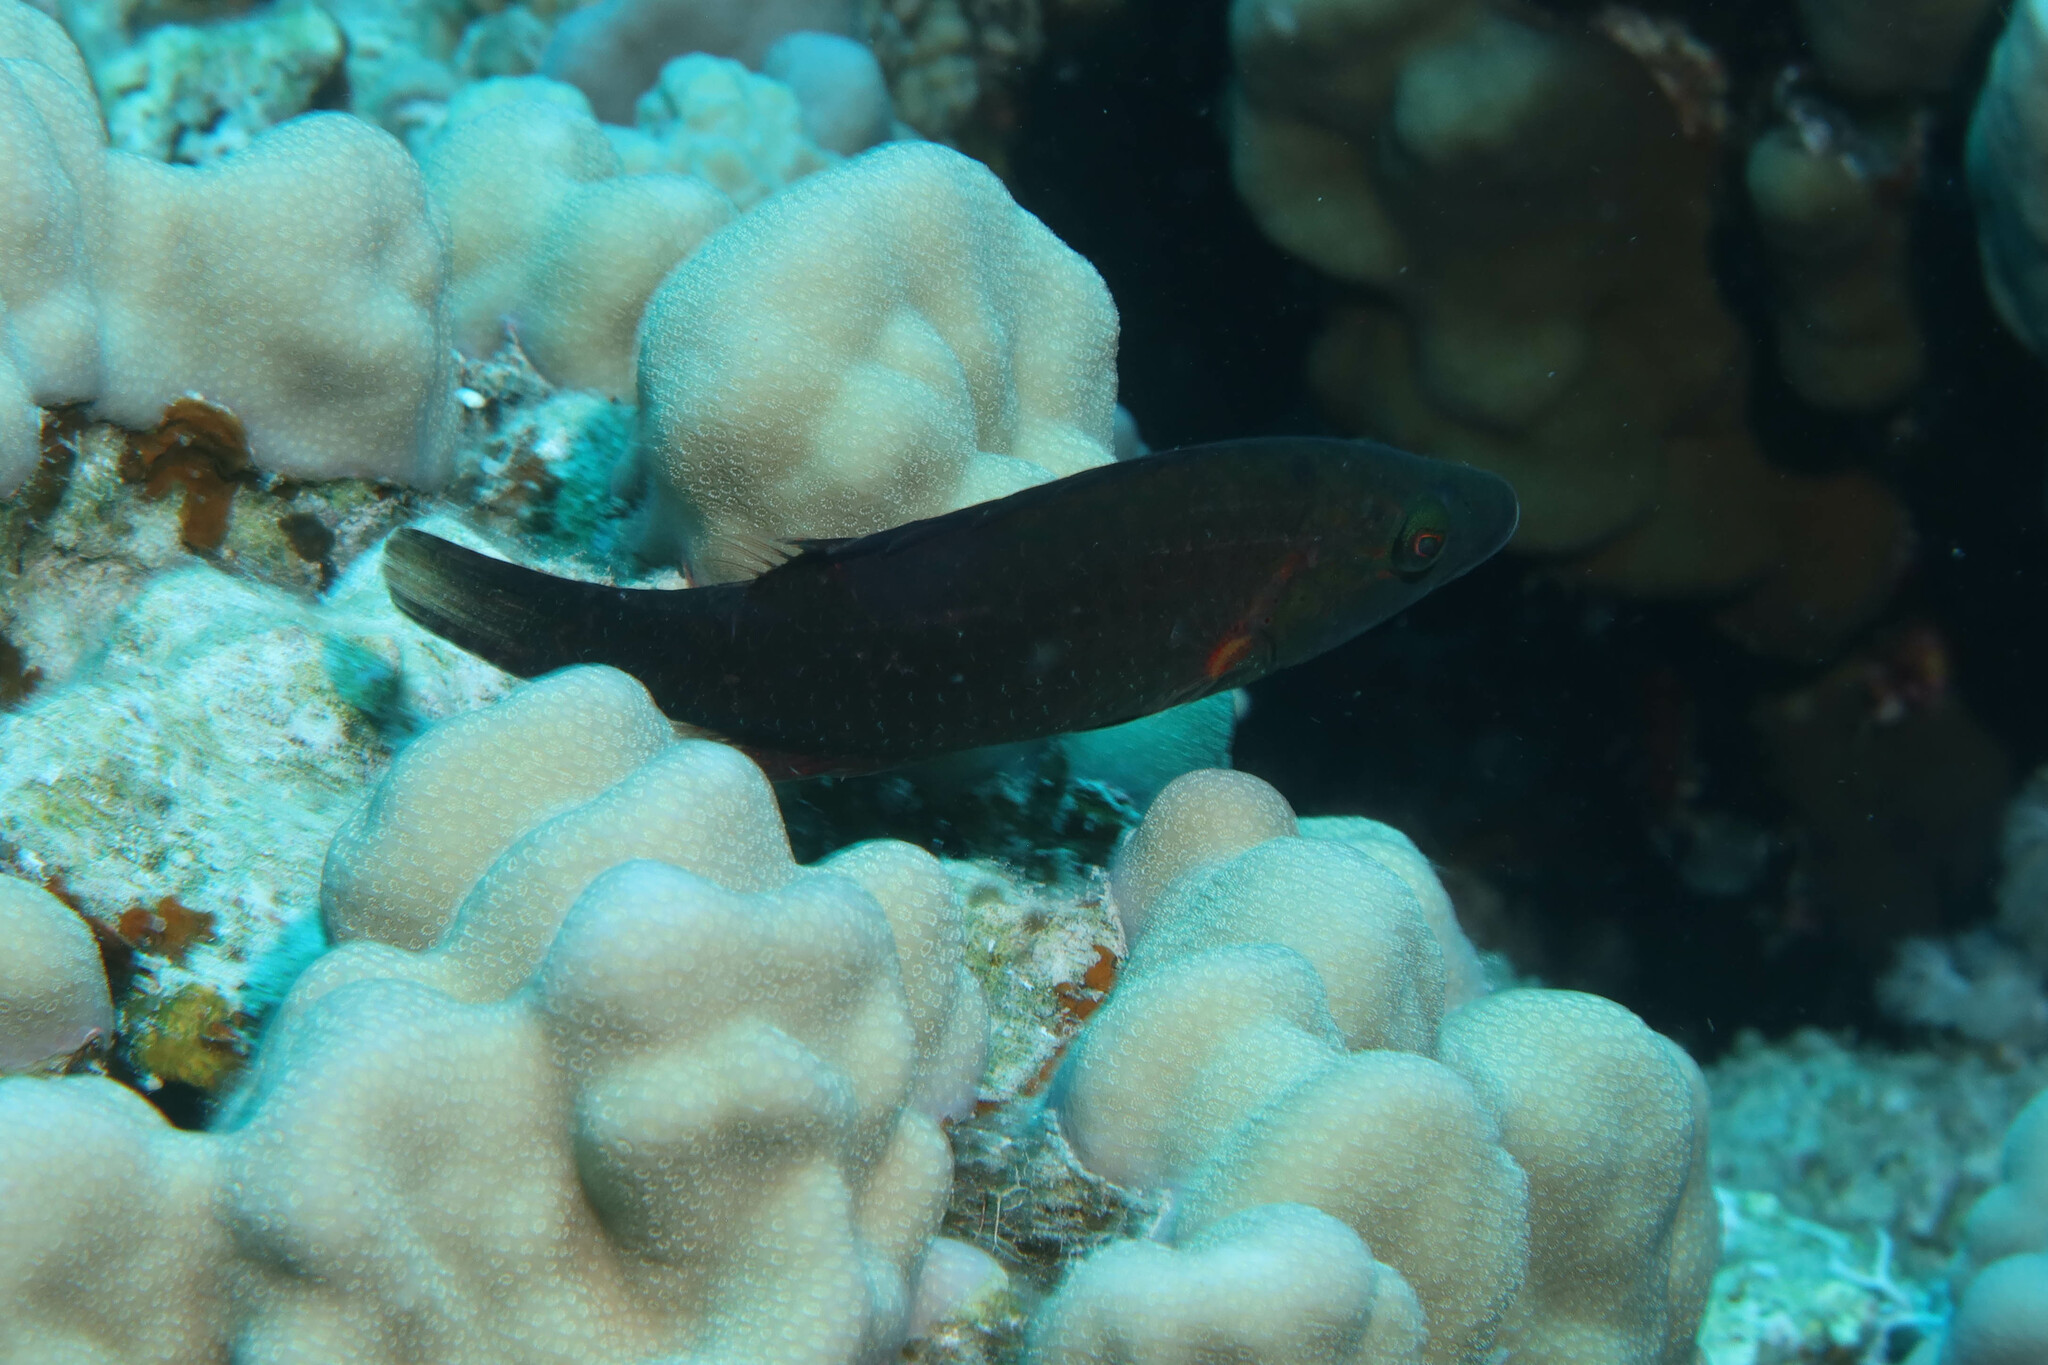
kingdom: Animalia
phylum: Chordata
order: Perciformes
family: Labridae
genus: Oxycheilinus
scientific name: Oxycheilinus digramma
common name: Bandcheek wrasse
